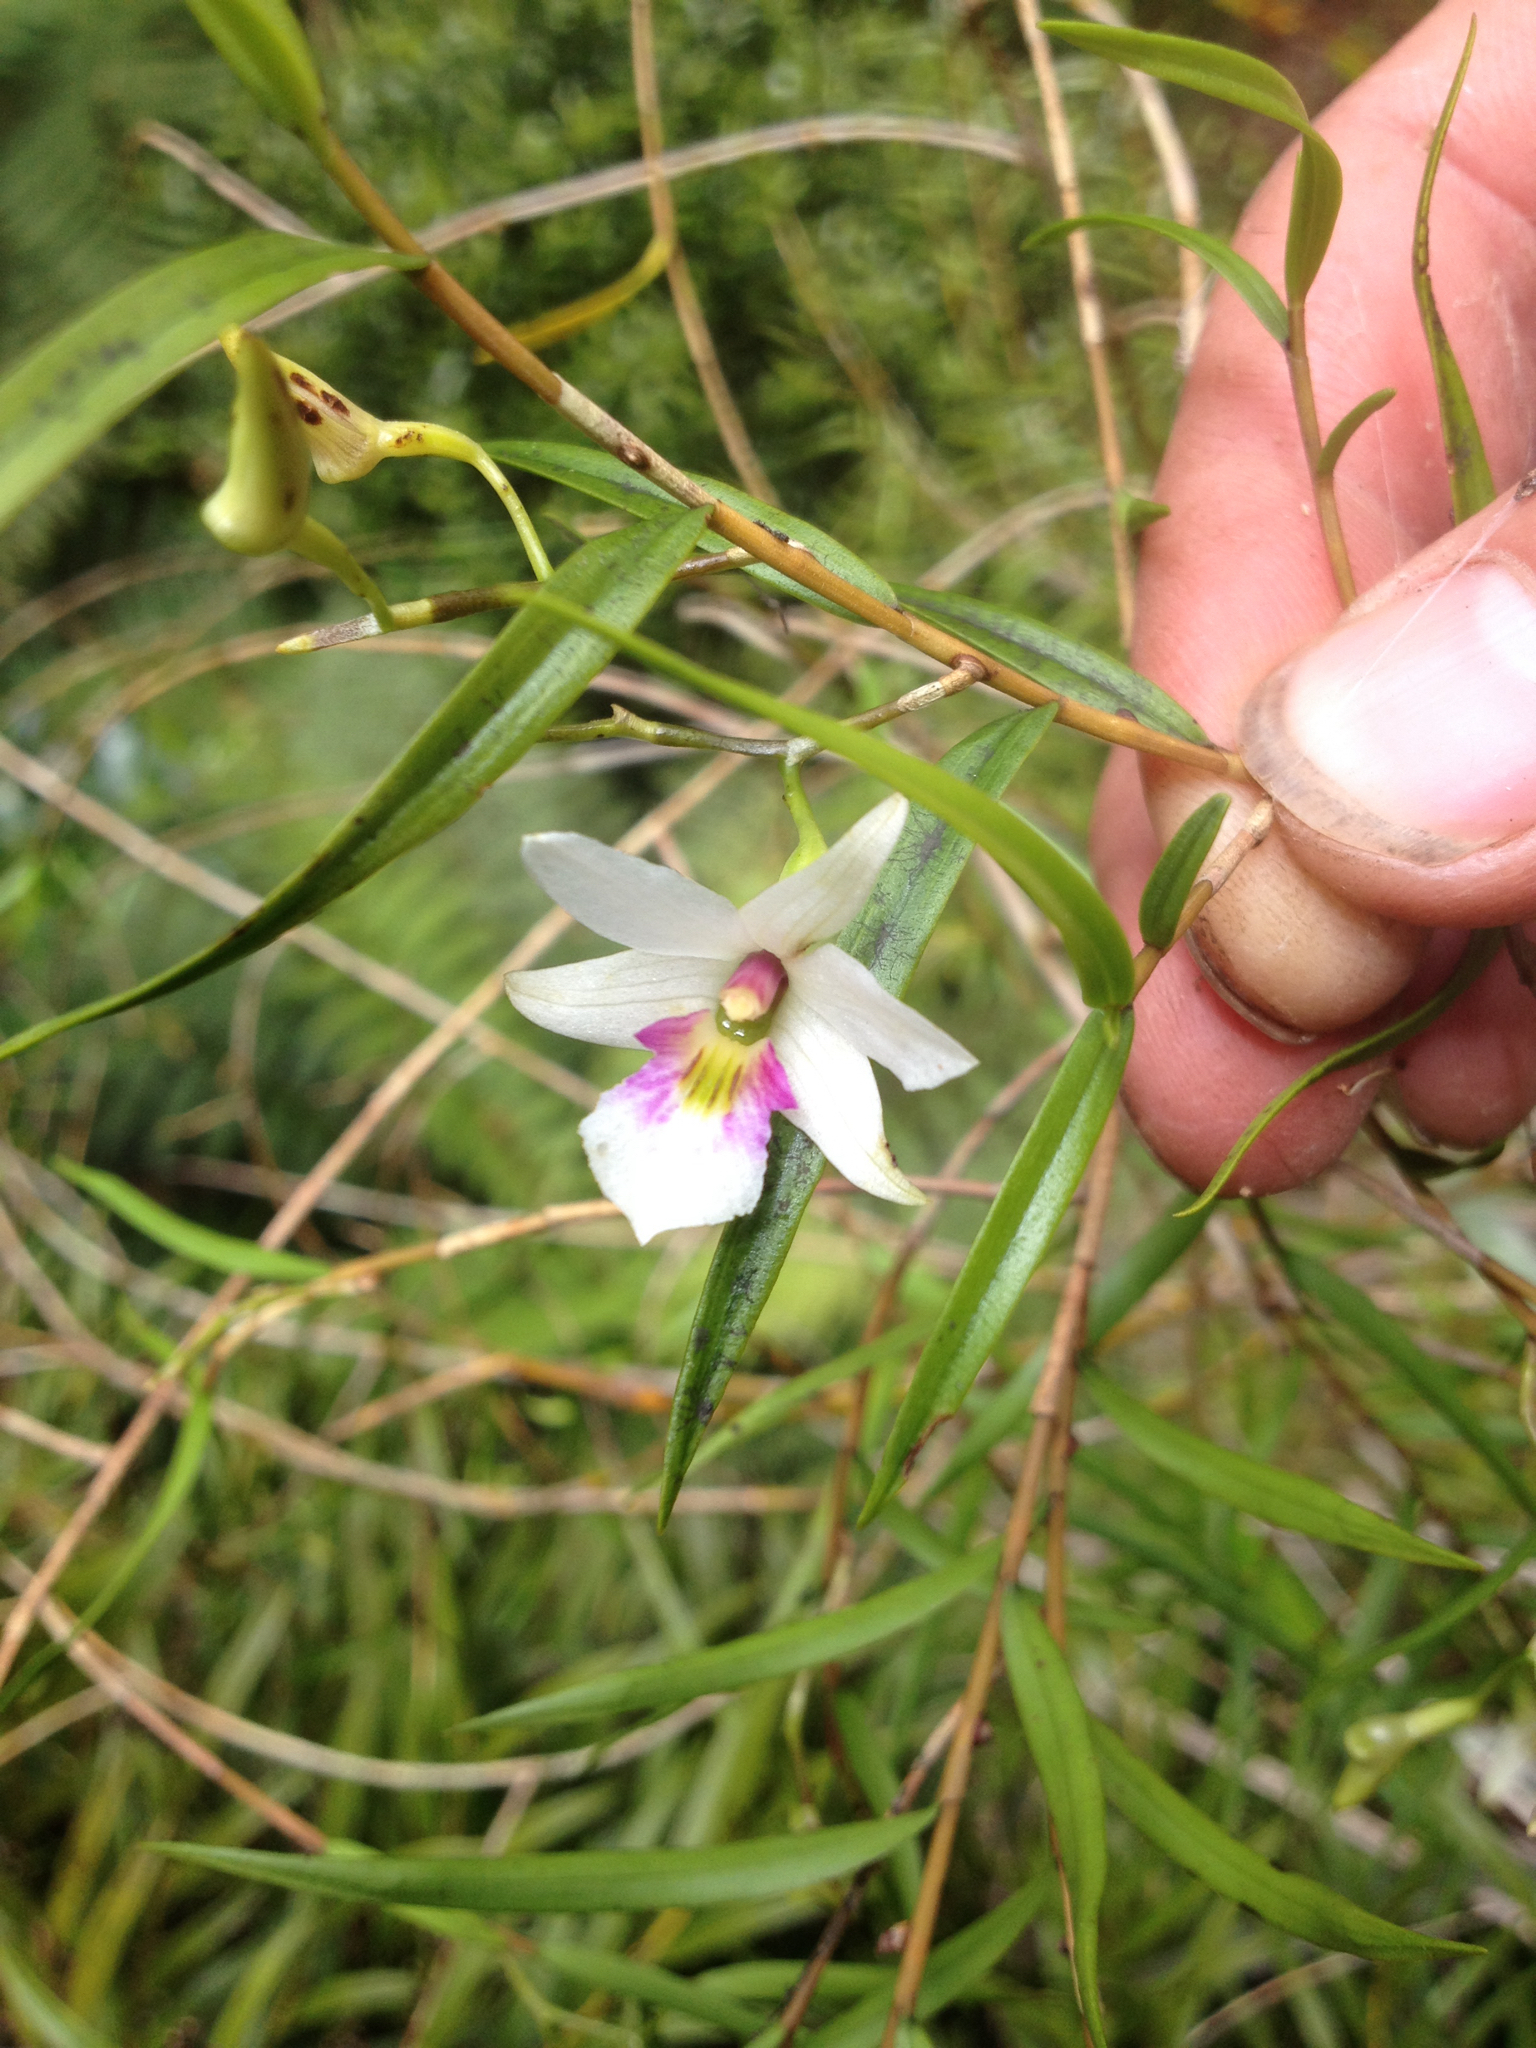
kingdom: Plantae
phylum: Tracheophyta
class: Liliopsida
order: Asparagales
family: Orchidaceae
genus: Dendrobium
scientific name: Dendrobium cunninghamii
